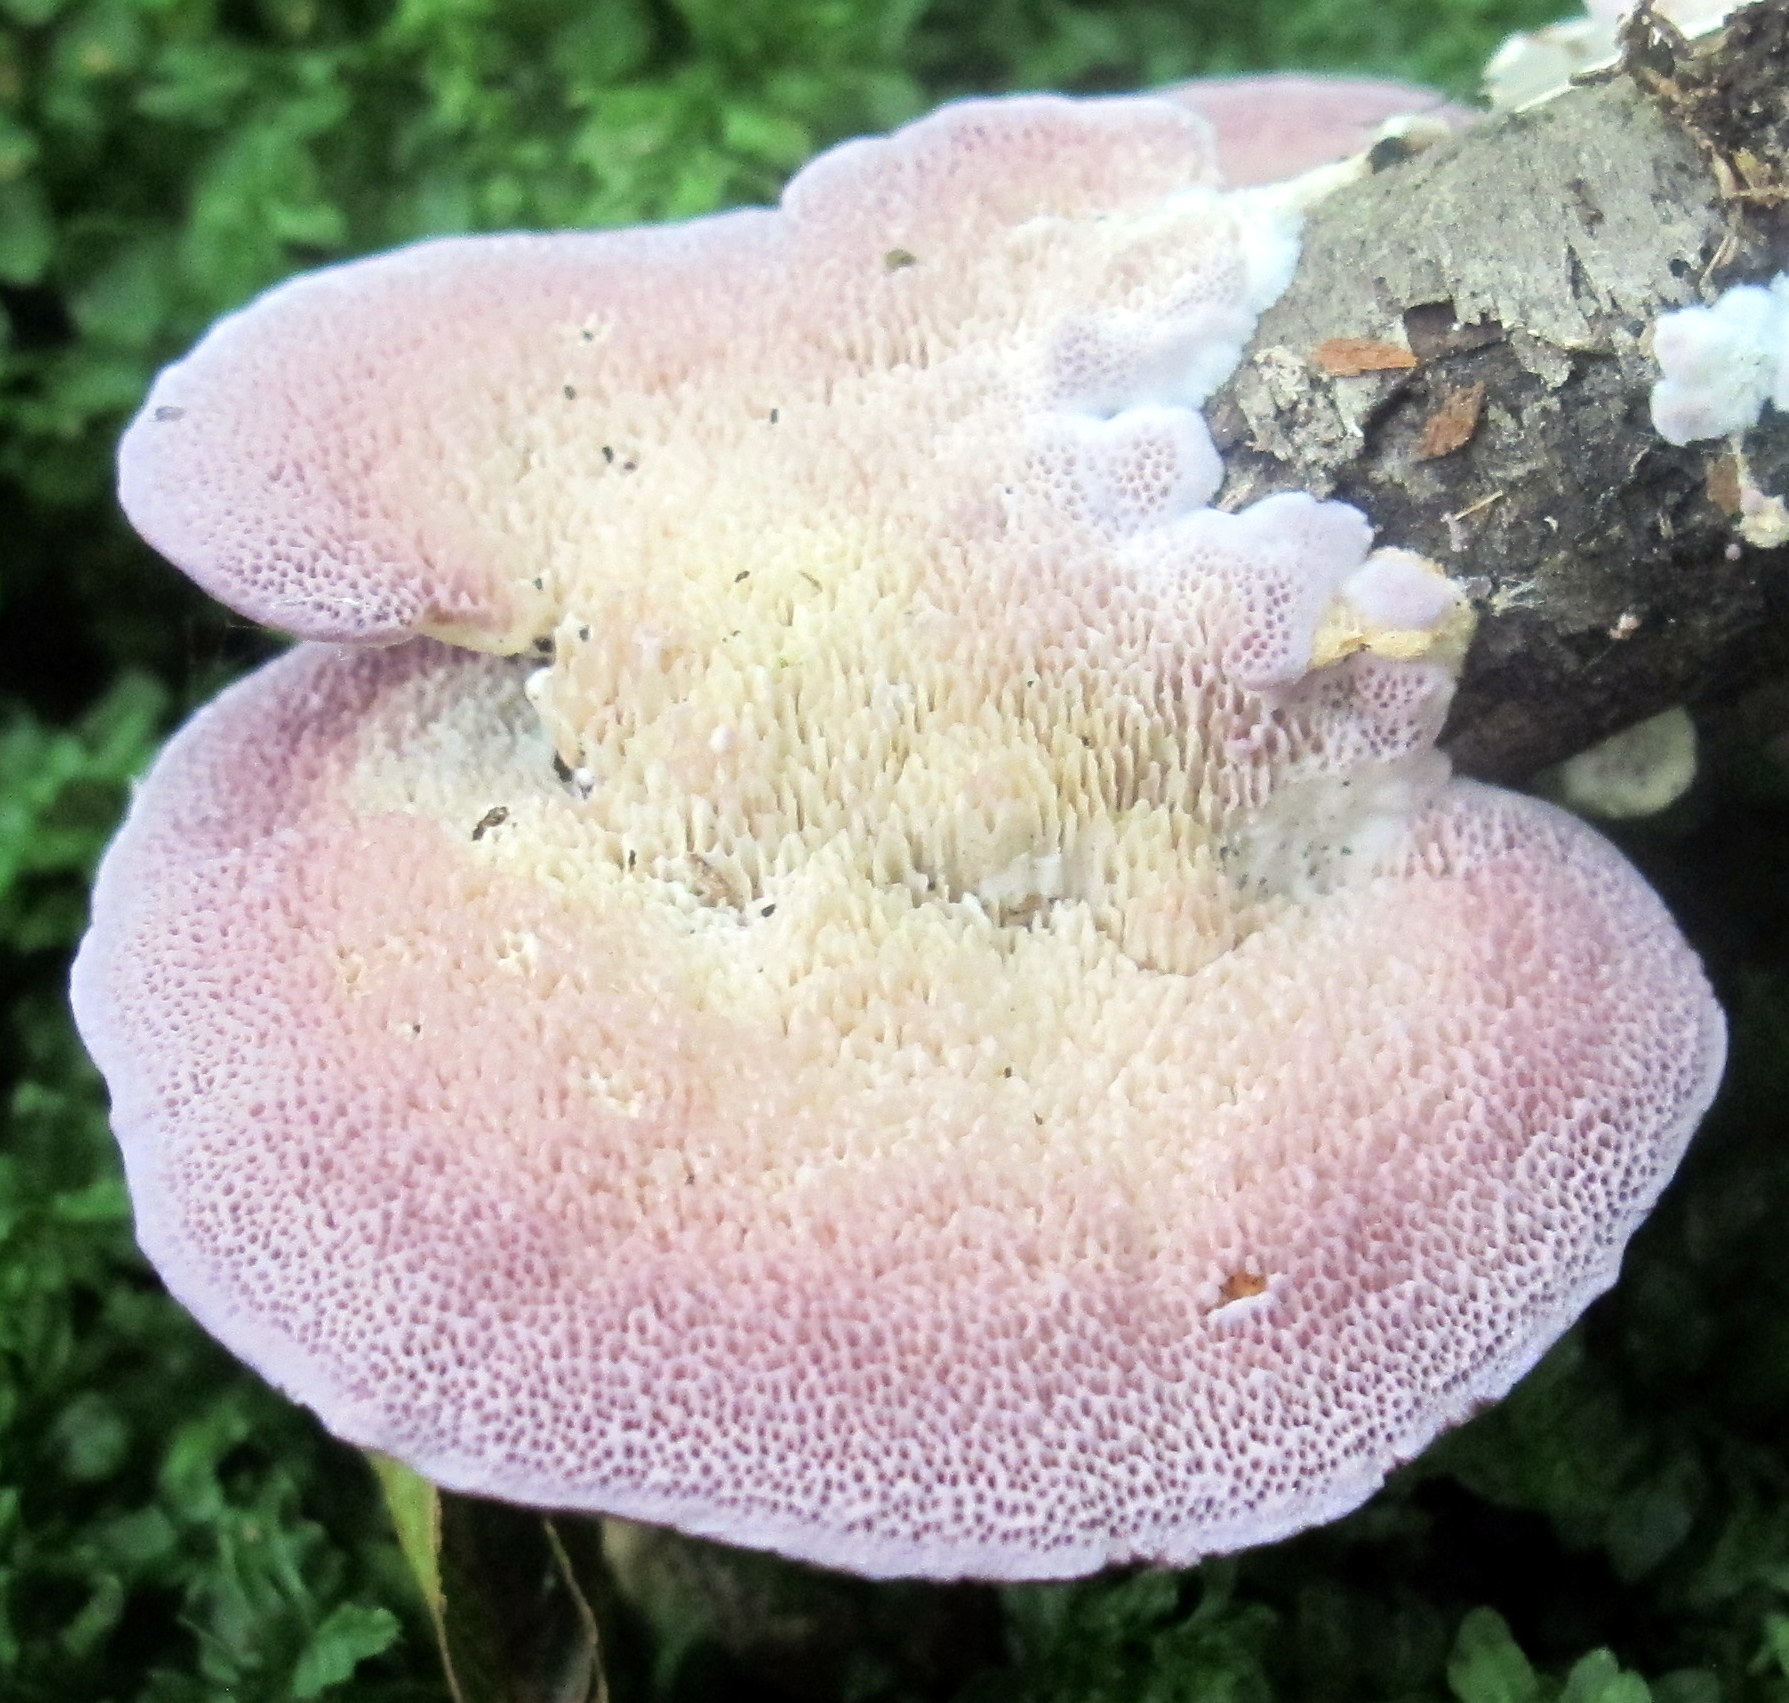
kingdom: Fungi
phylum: Basidiomycota
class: Agaricomycetes
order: Hymenochaetales
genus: Trichaptum
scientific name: Trichaptum biforme
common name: Violet-toothed polypore
